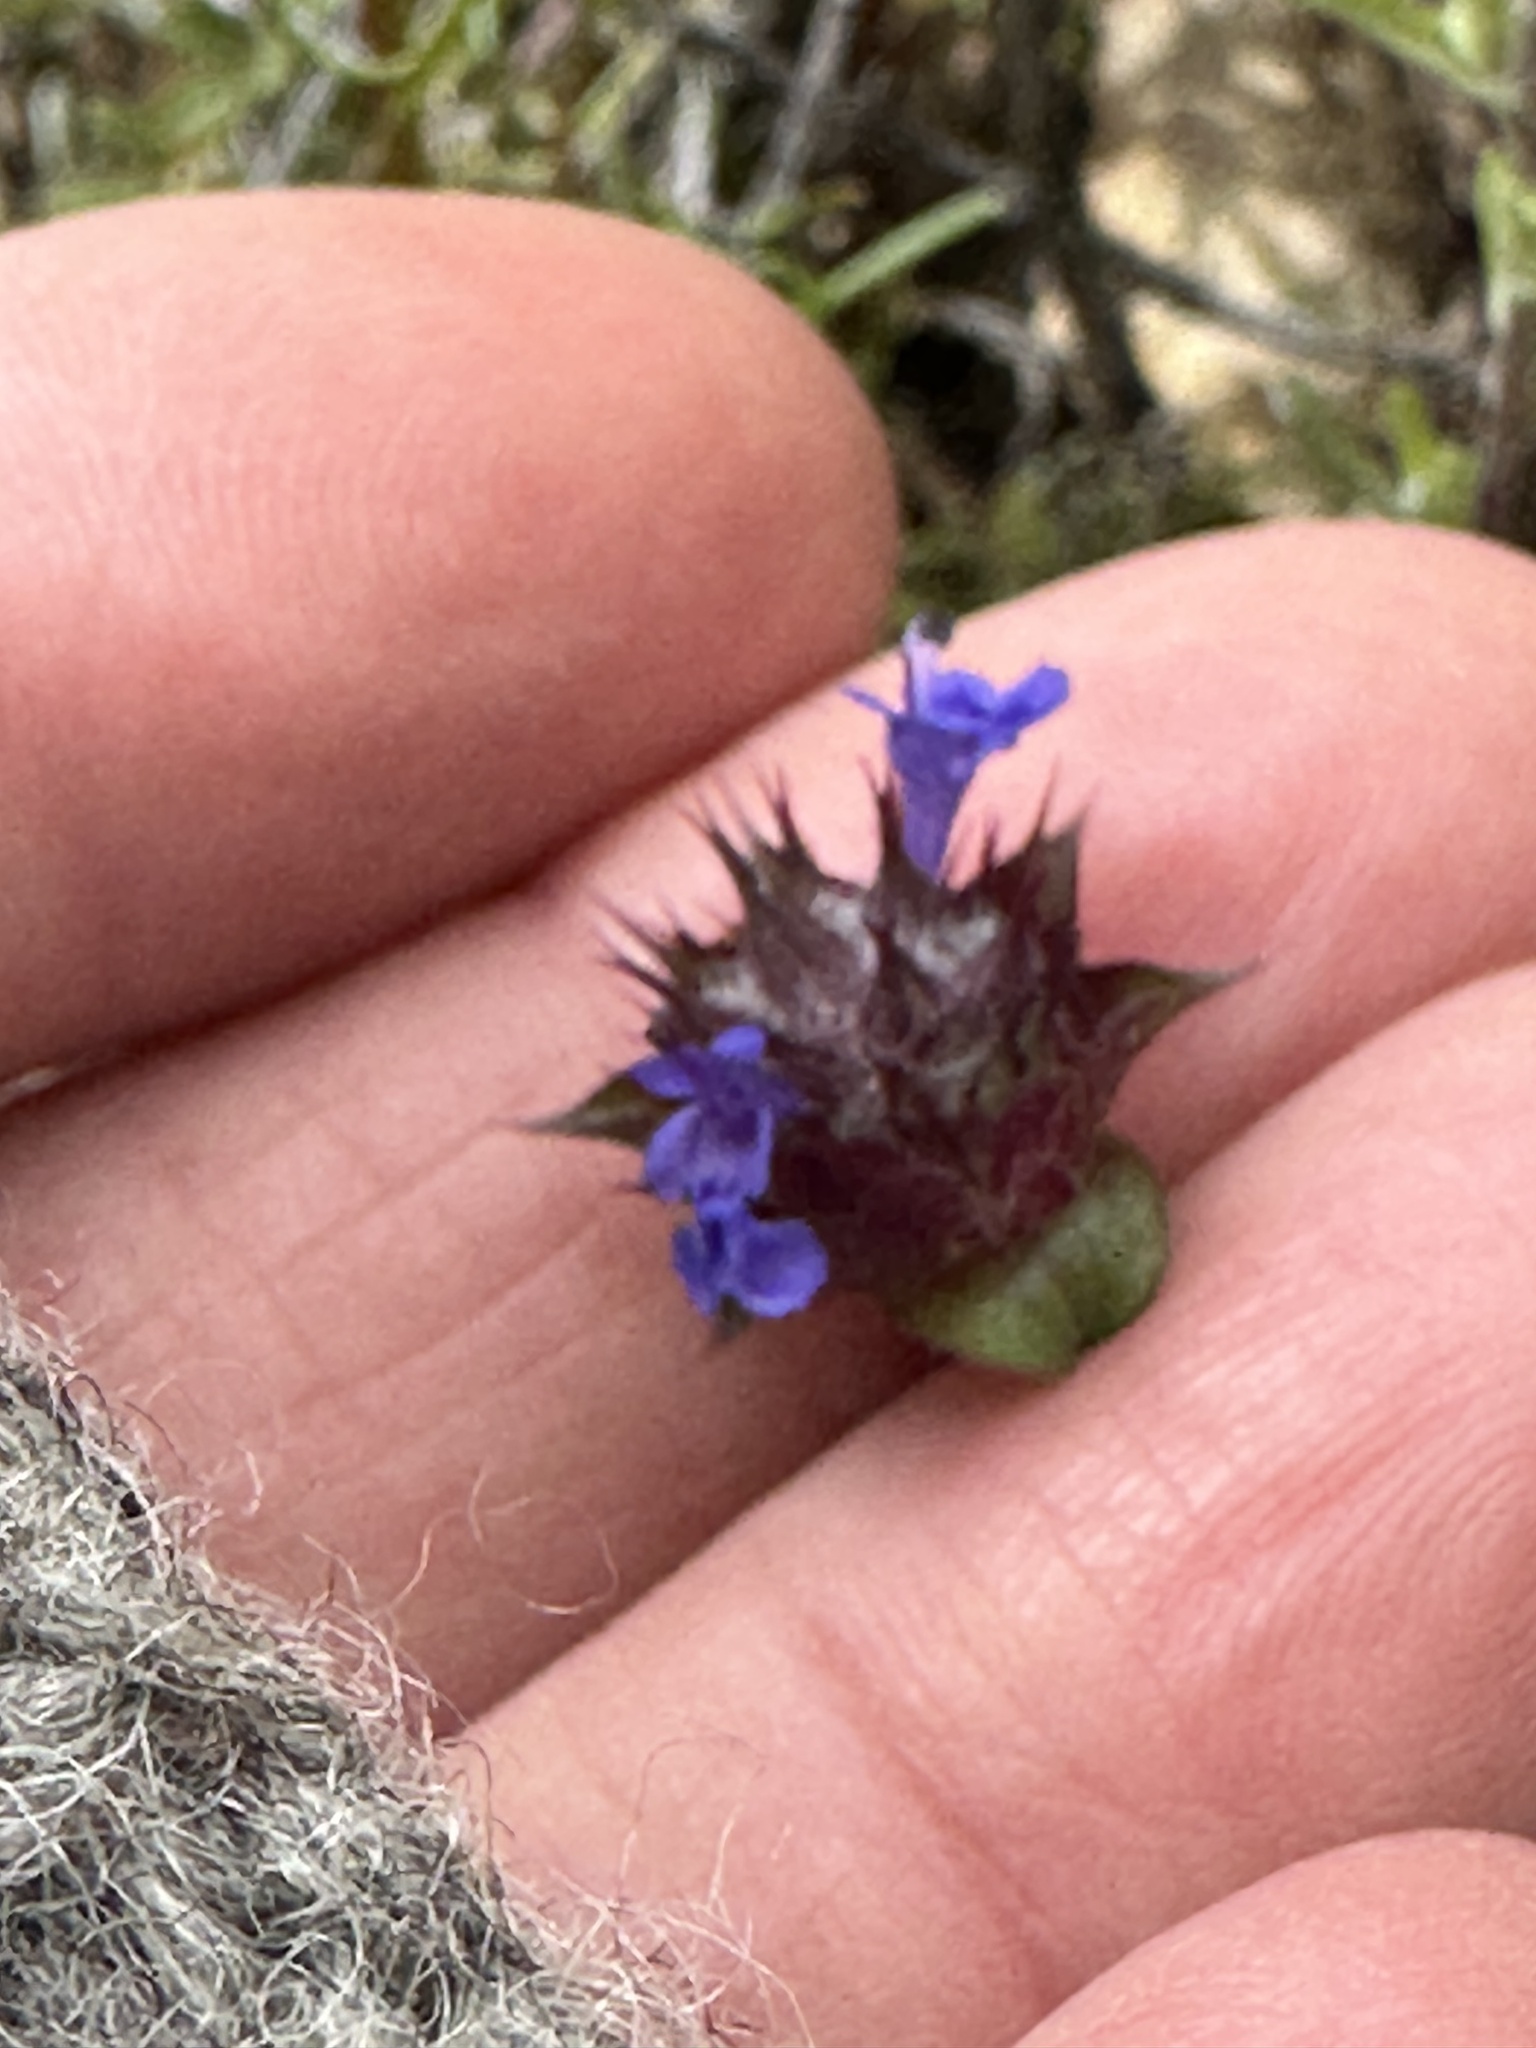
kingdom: Plantae
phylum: Tracheophyta
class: Magnoliopsida
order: Lamiales
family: Lamiaceae
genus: Salvia
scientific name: Salvia columbariae
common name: Chia
